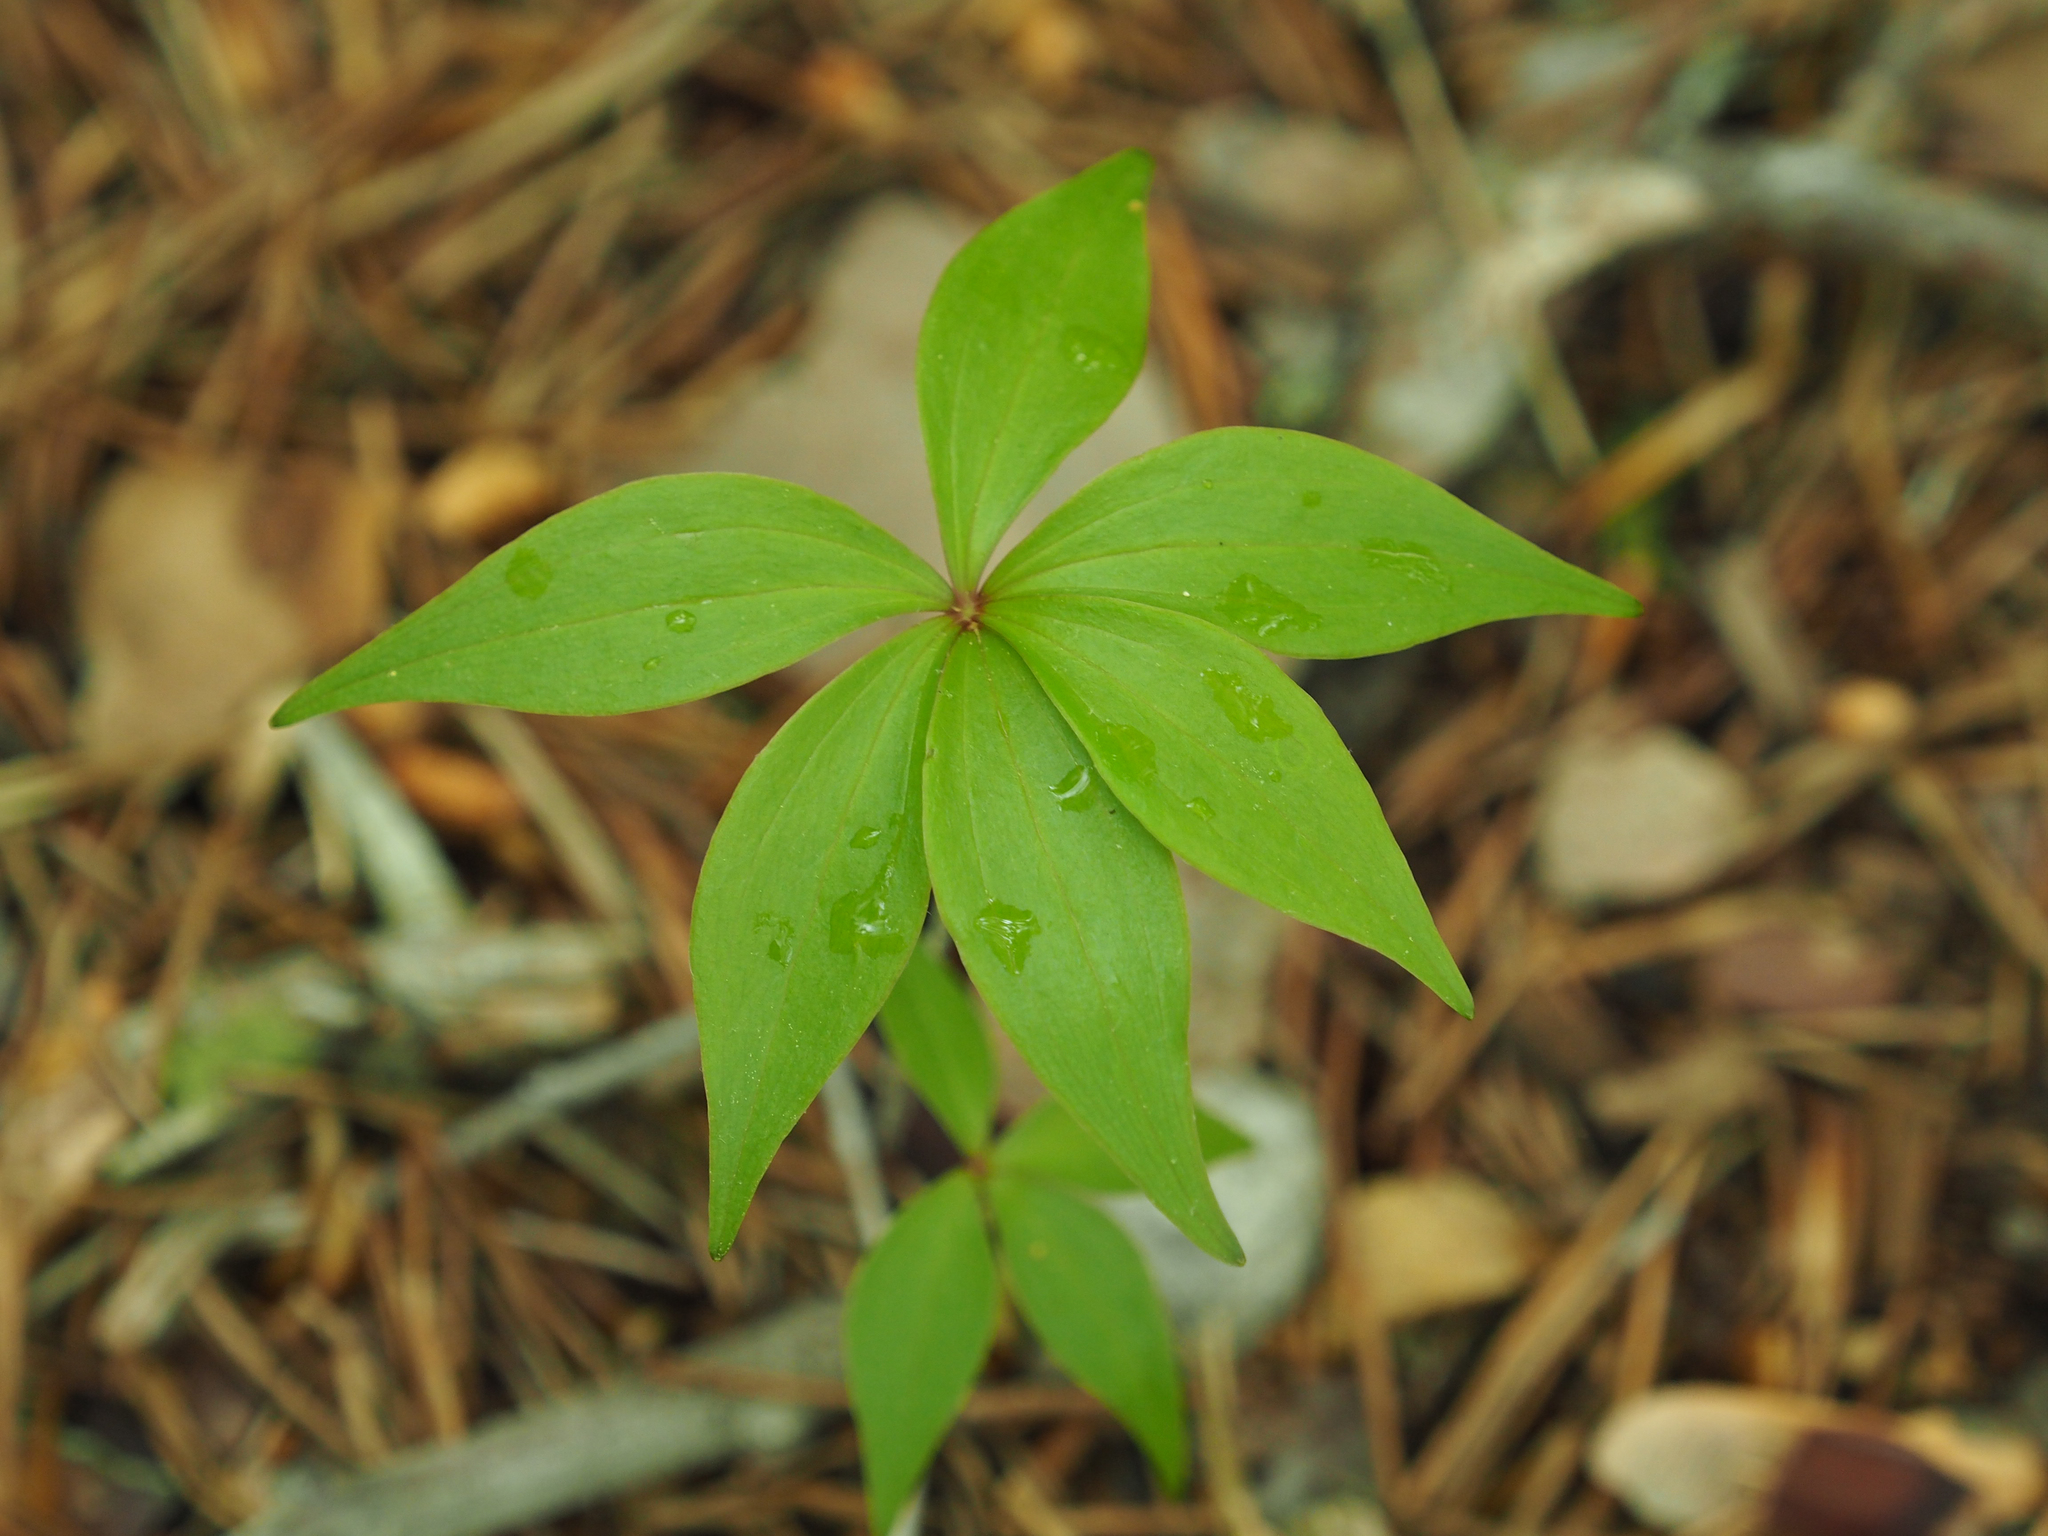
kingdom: Plantae
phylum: Tracheophyta
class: Liliopsida
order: Liliales
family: Liliaceae
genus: Medeola
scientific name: Medeola virginiana
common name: Indian cucumber-root
